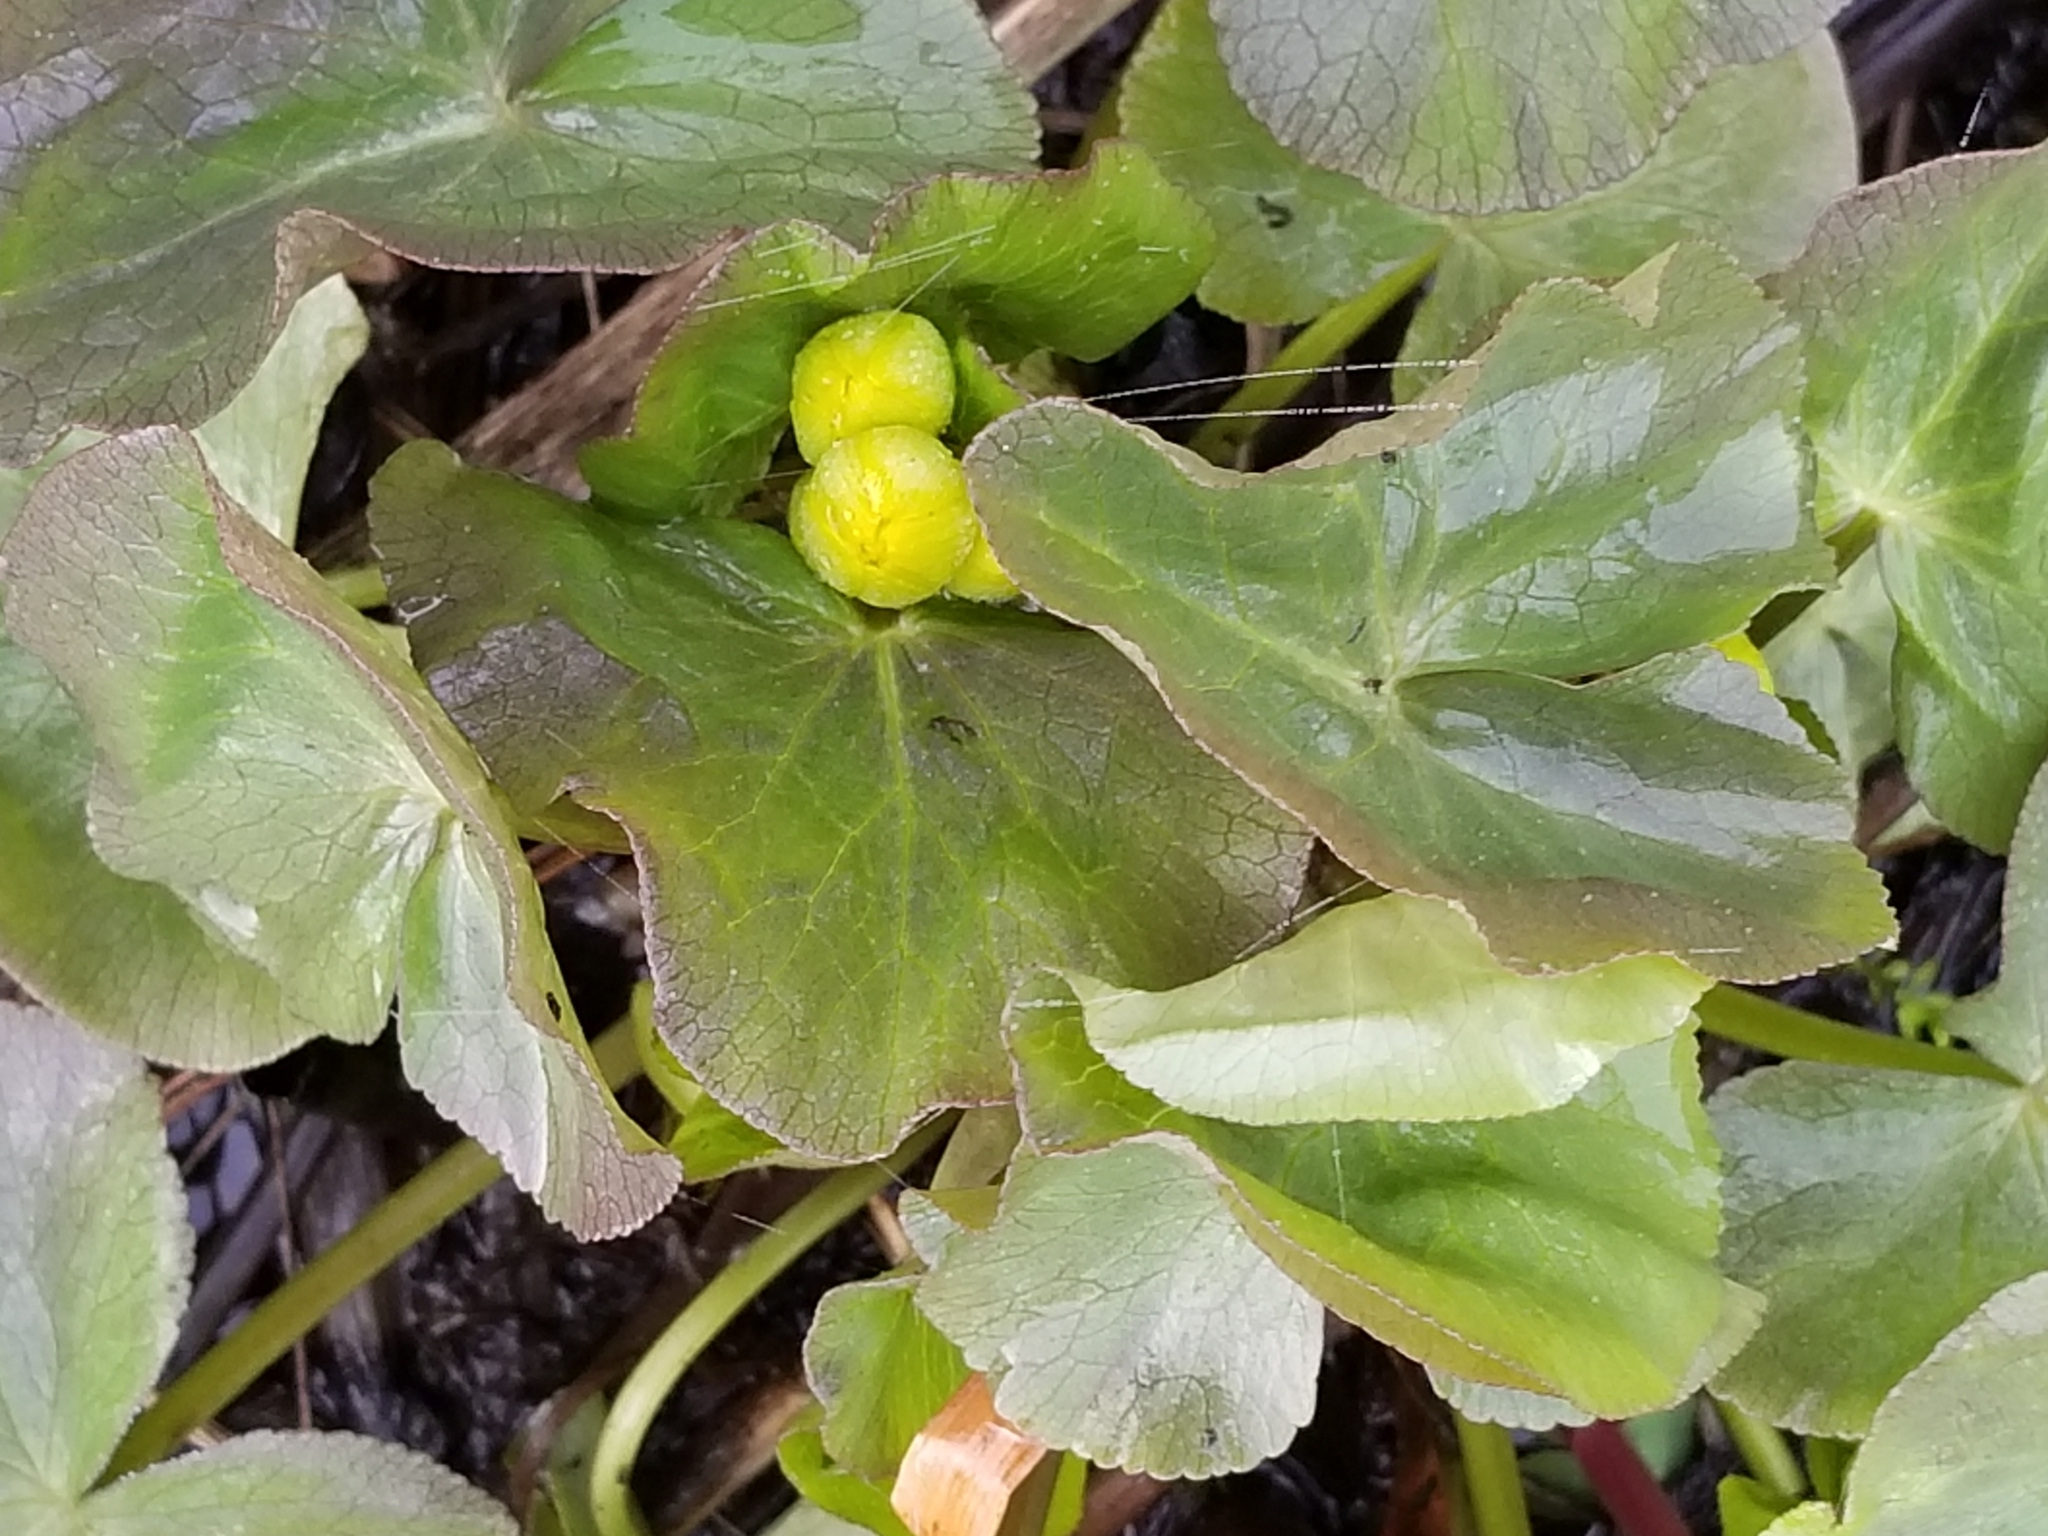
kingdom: Plantae
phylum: Tracheophyta
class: Magnoliopsida
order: Ranunculales
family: Ranunculaceae
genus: Caltha
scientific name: Caltha palustris
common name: Marsh marigold
